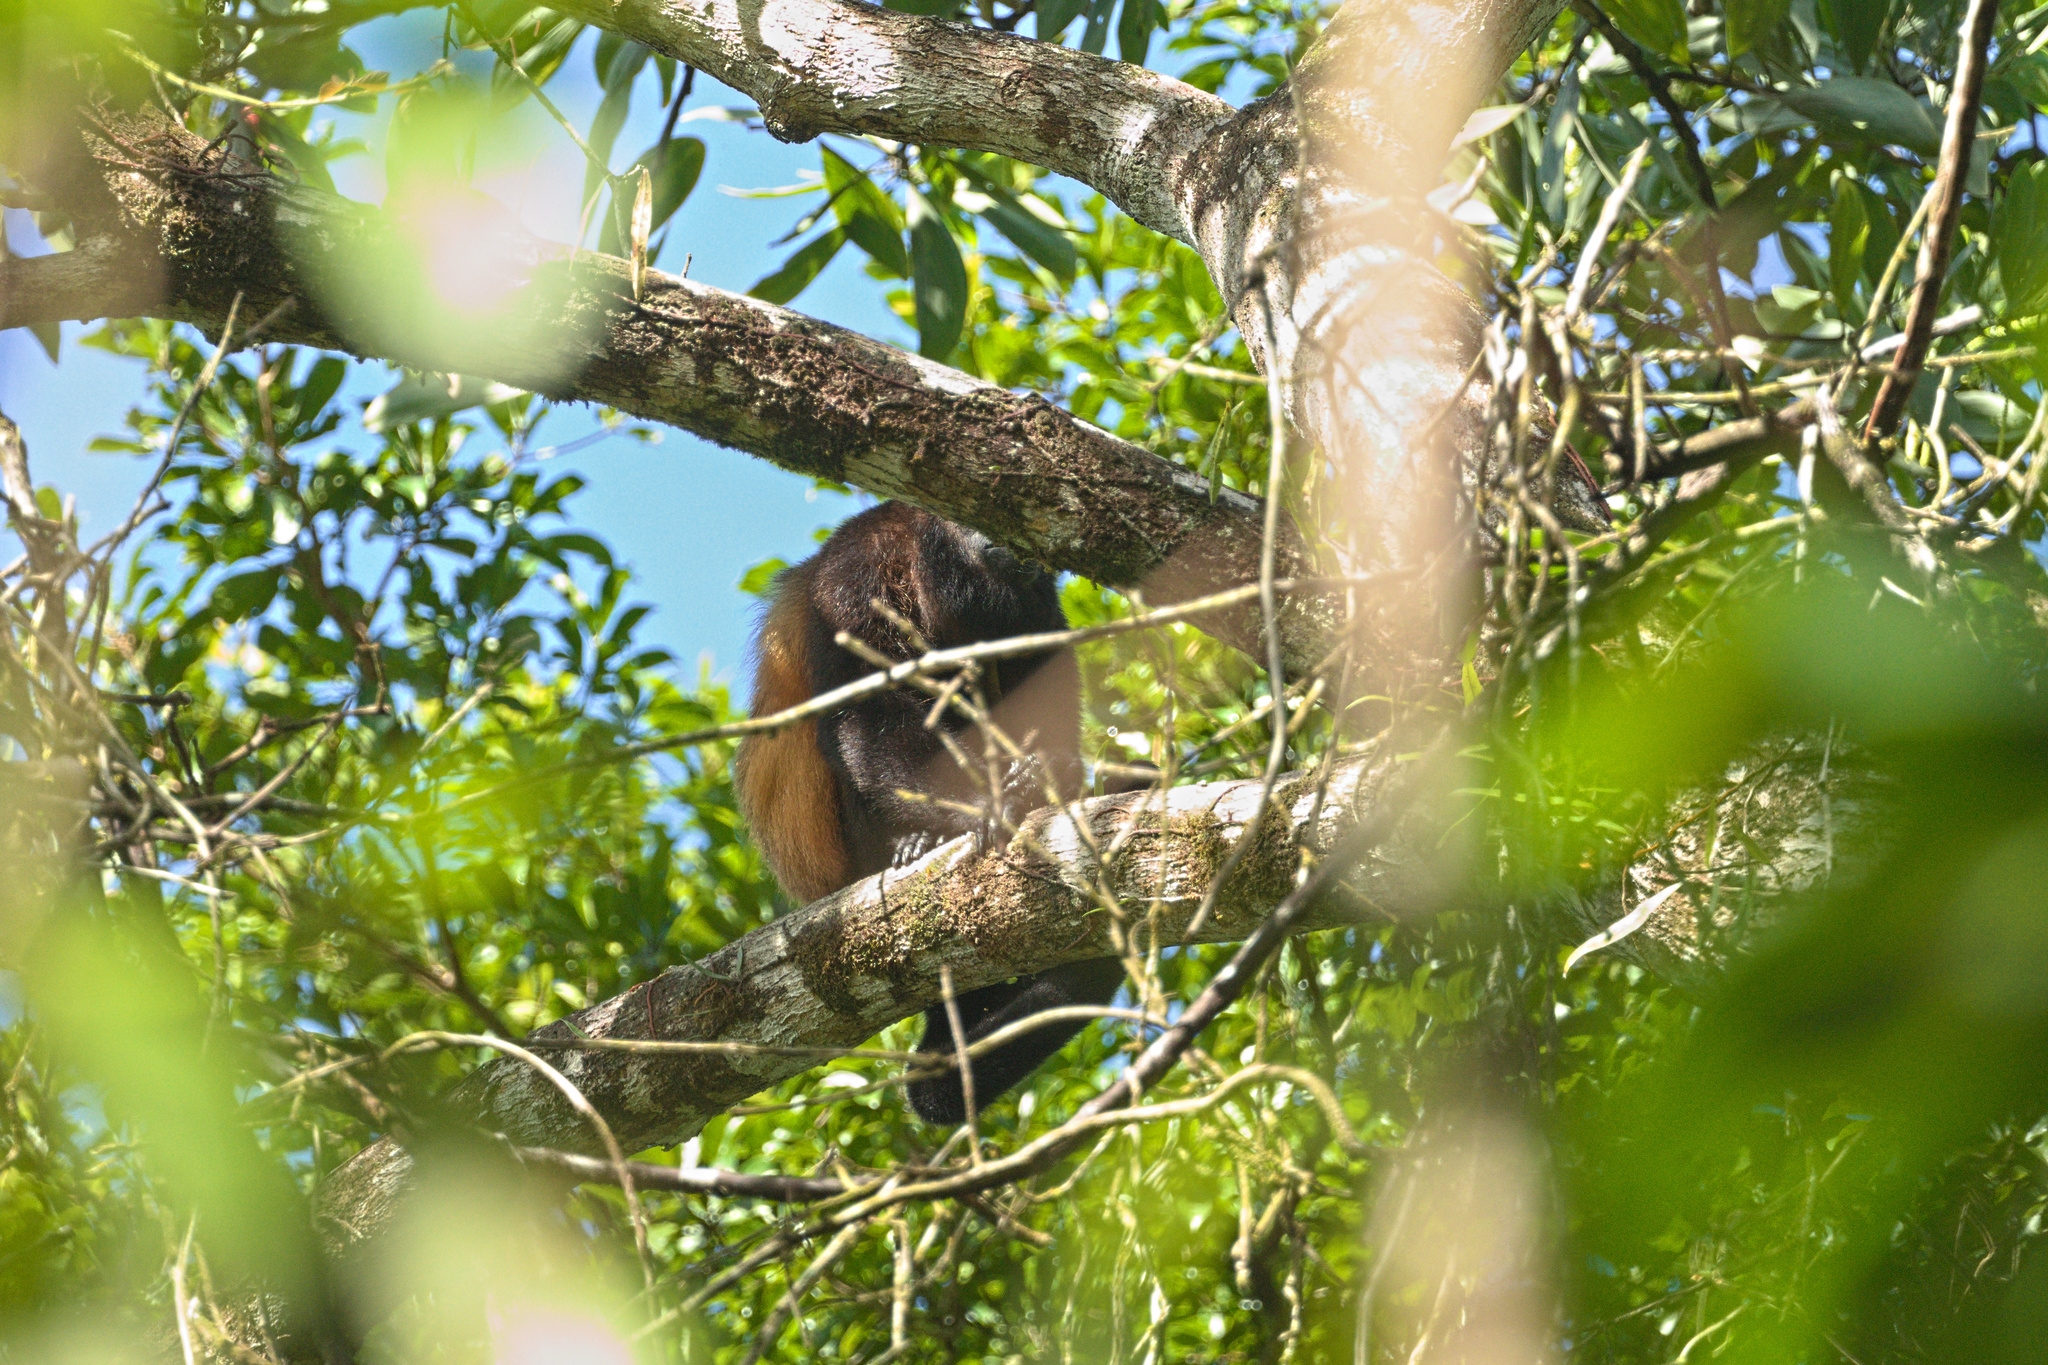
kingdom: Animalia
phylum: Chordata
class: Mammalia
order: Primates
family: Atelidae
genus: Alouatta
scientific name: Alouatta palliata
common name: Mantled howler
